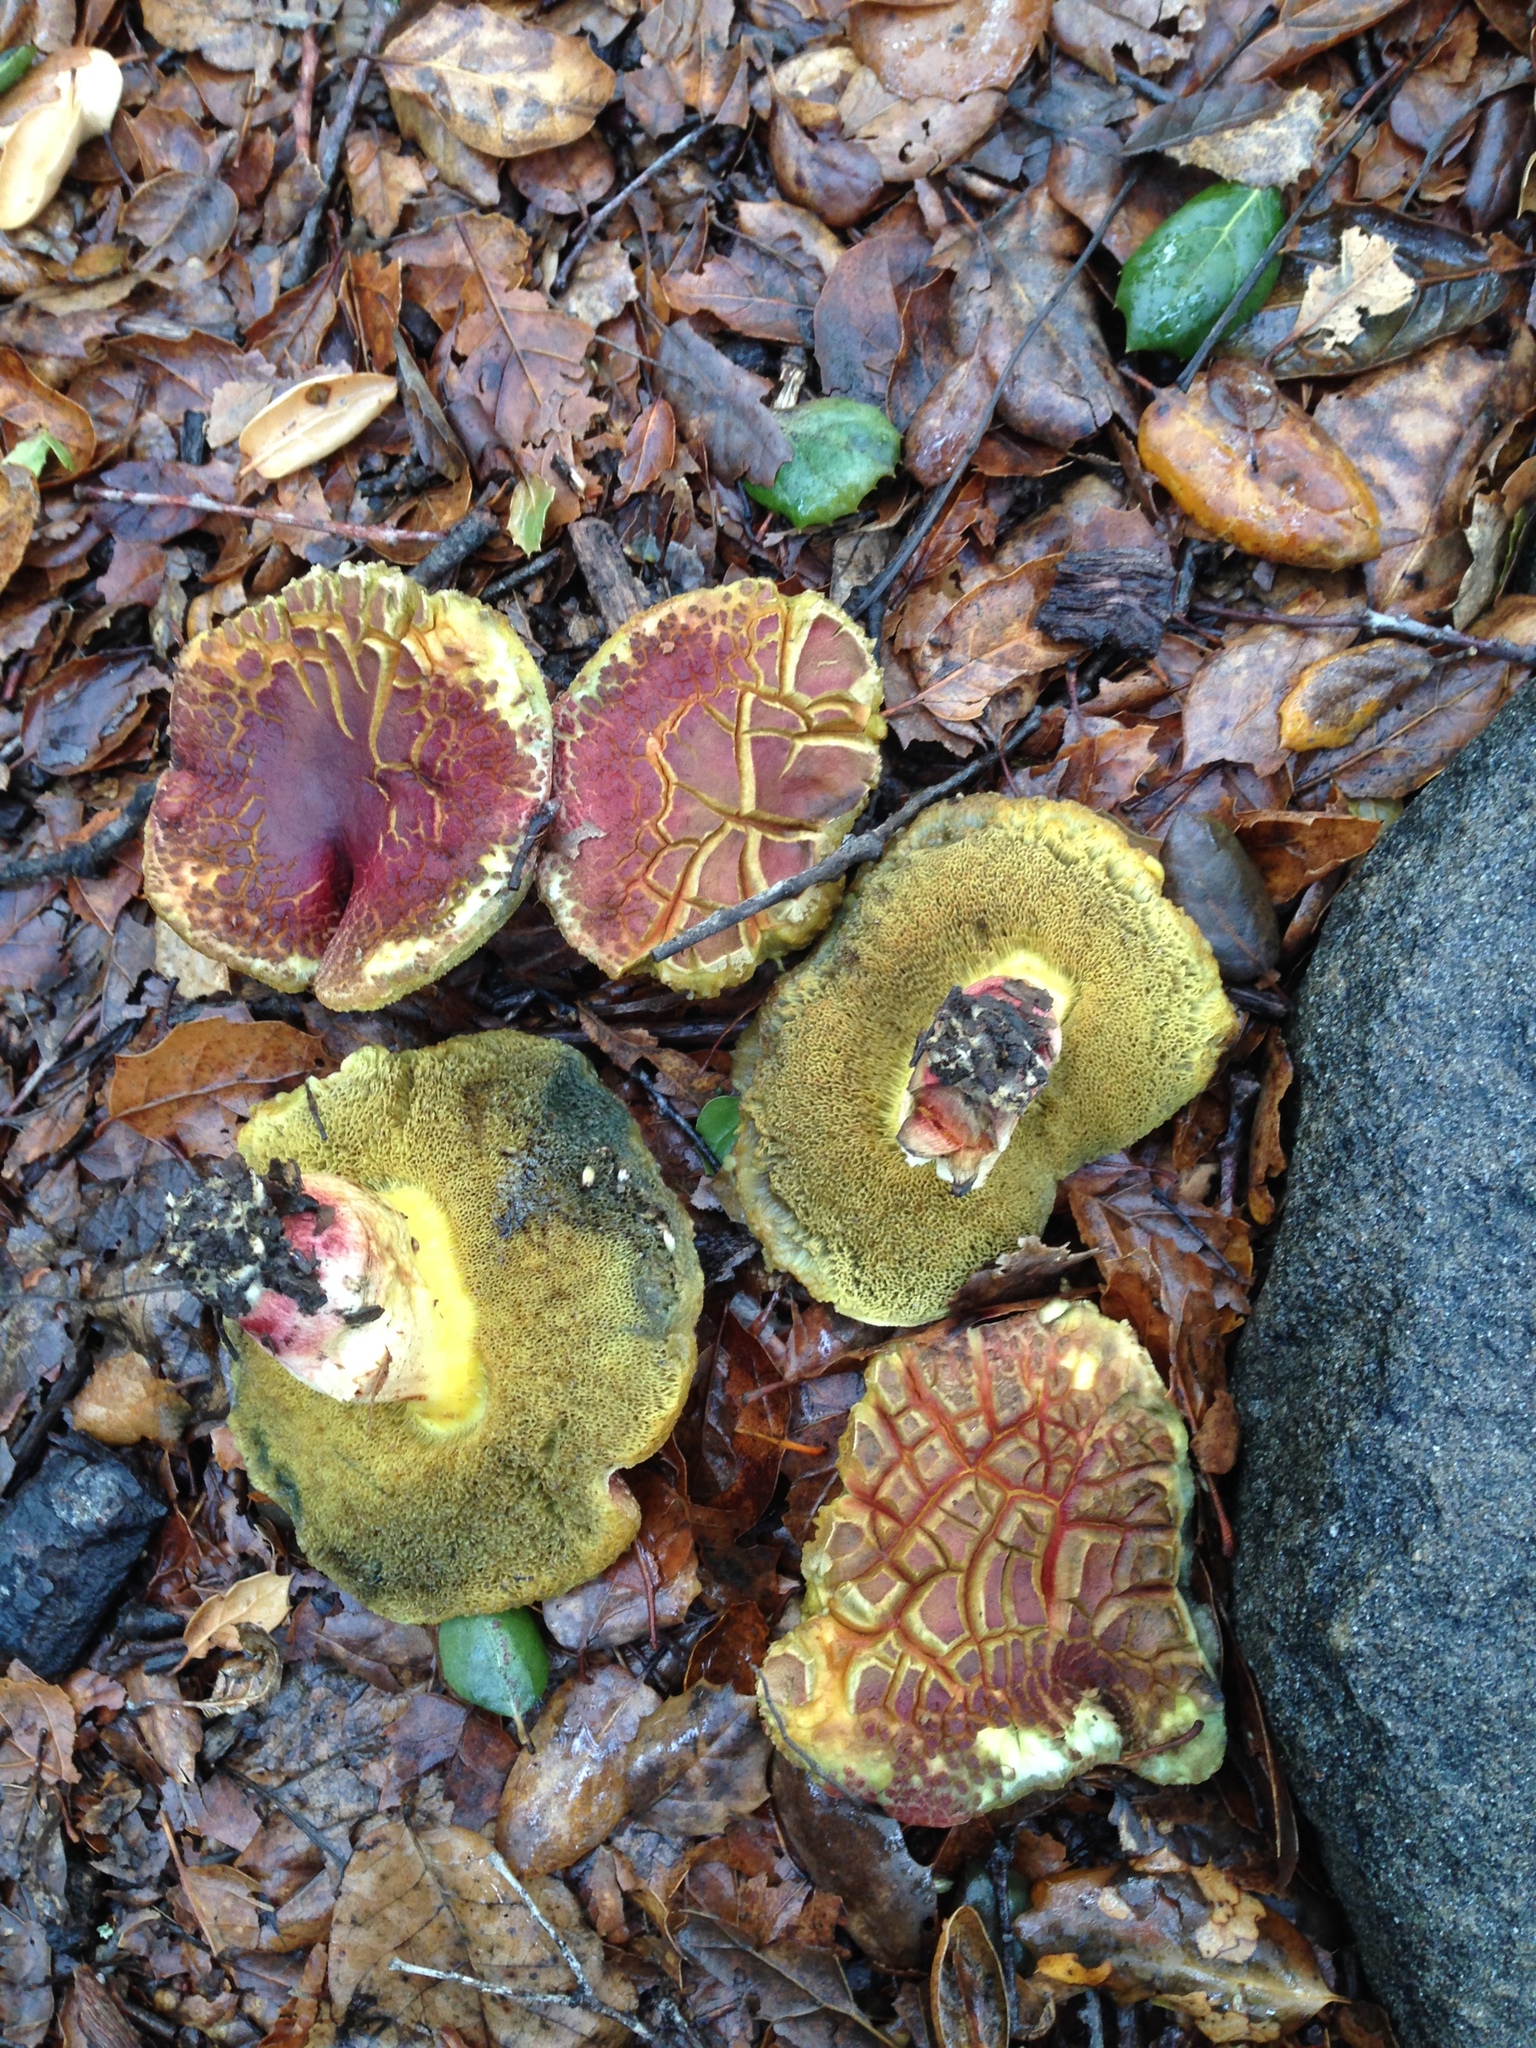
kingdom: Fungi
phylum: Basidiomycota
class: Agaricomycetes
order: Boletales
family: Boletaceae
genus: Xerocomellus
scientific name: Xerocomellus dryophilus
